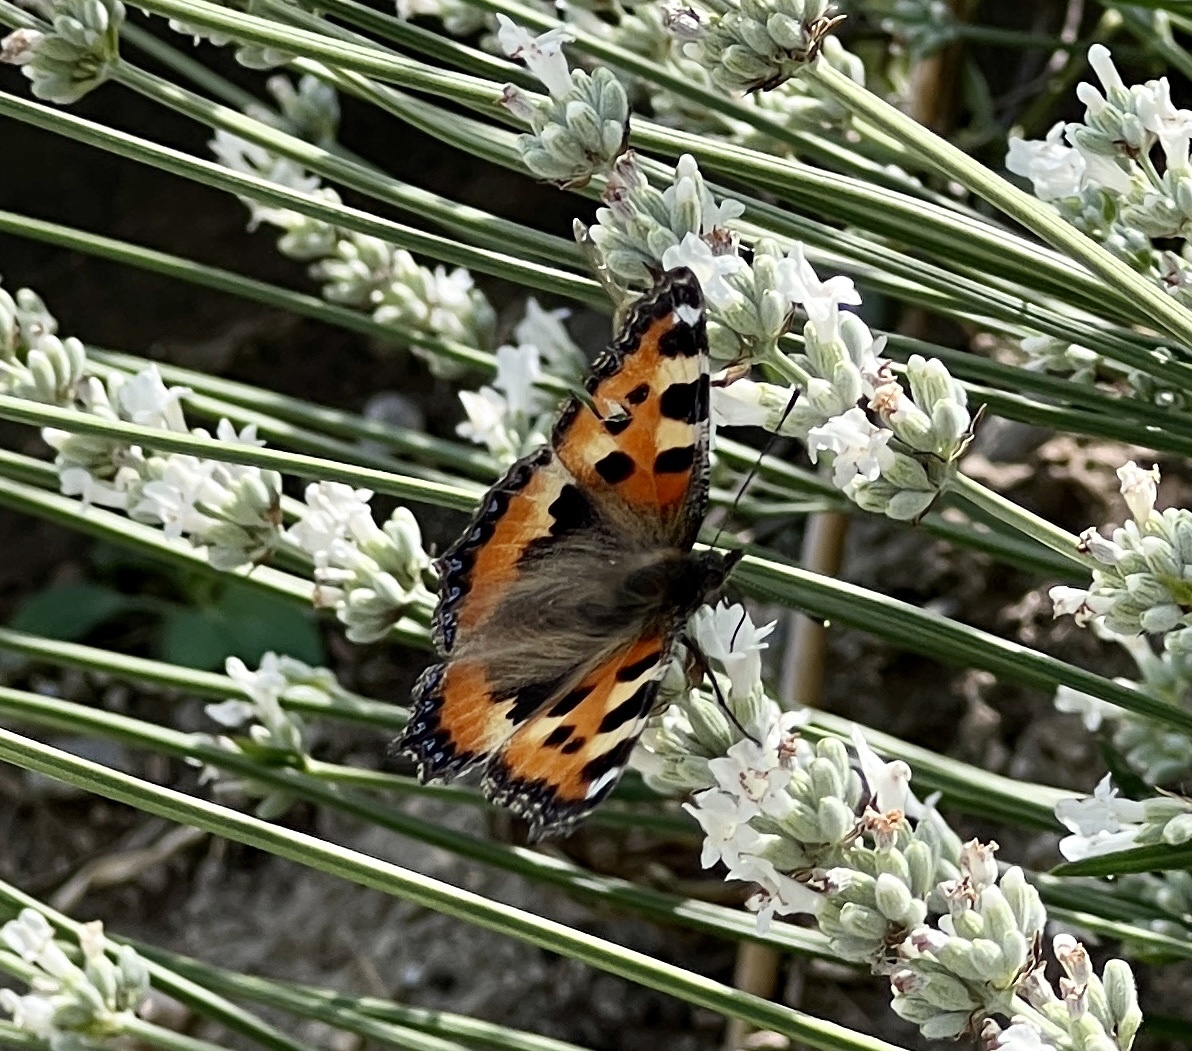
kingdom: Animalia
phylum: Arthropoda
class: Insecta
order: Lepidoptera
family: Nymphalidae
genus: Aglais
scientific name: Aglais urticae
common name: Small tortoiseshell
